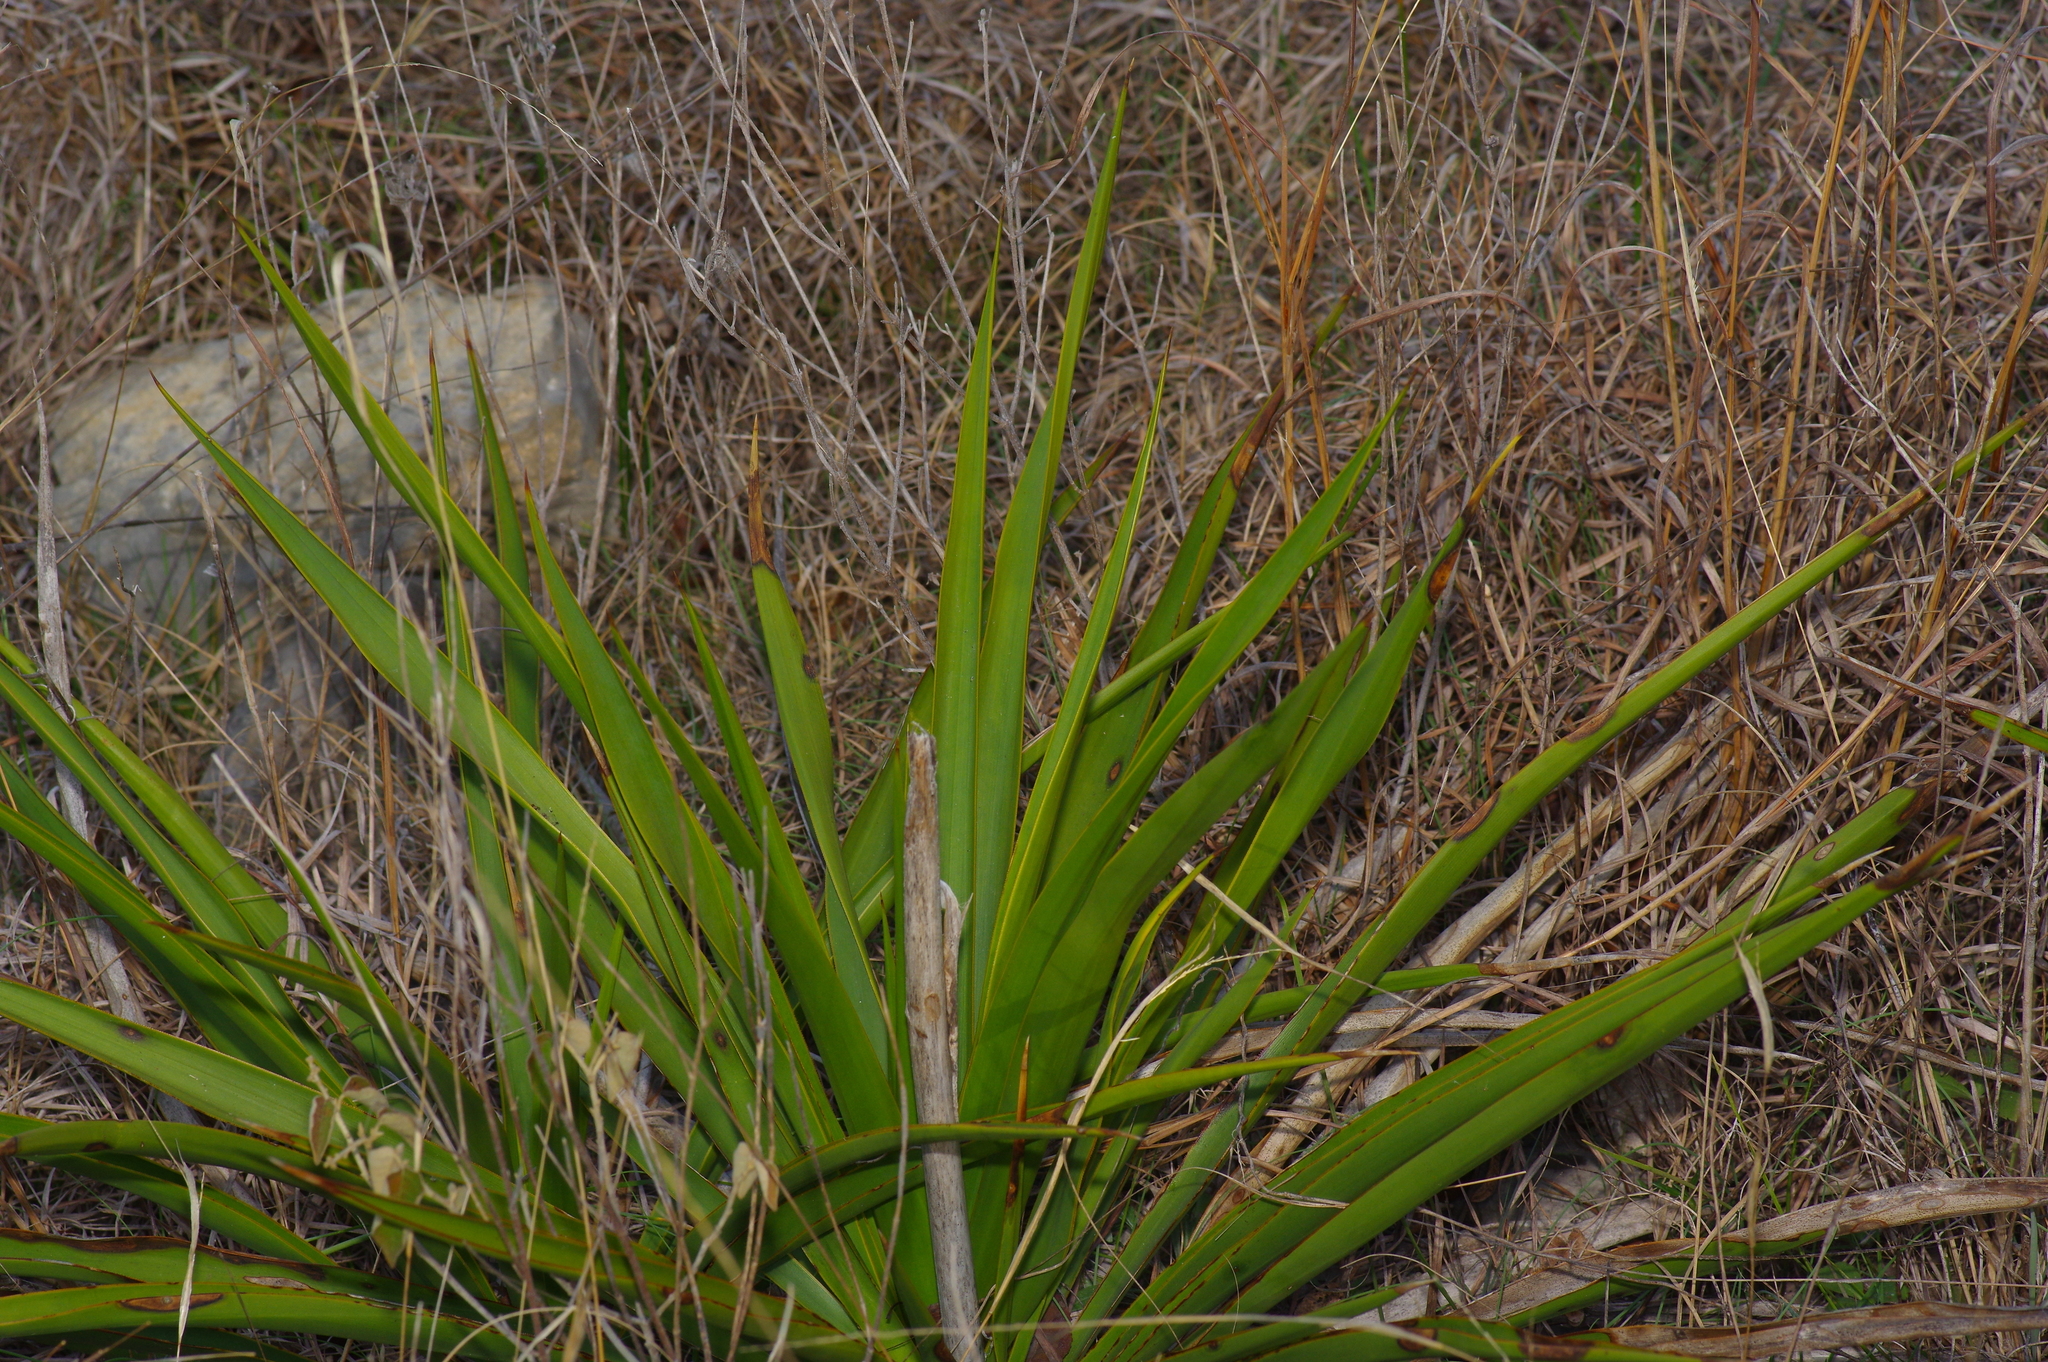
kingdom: Plantae
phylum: Tracheophyta
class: Liliopsida
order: Asparagales
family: Asparagaceae
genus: Yucca
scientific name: Yucca rupicola
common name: Twisted-leaf spanish-dagger
